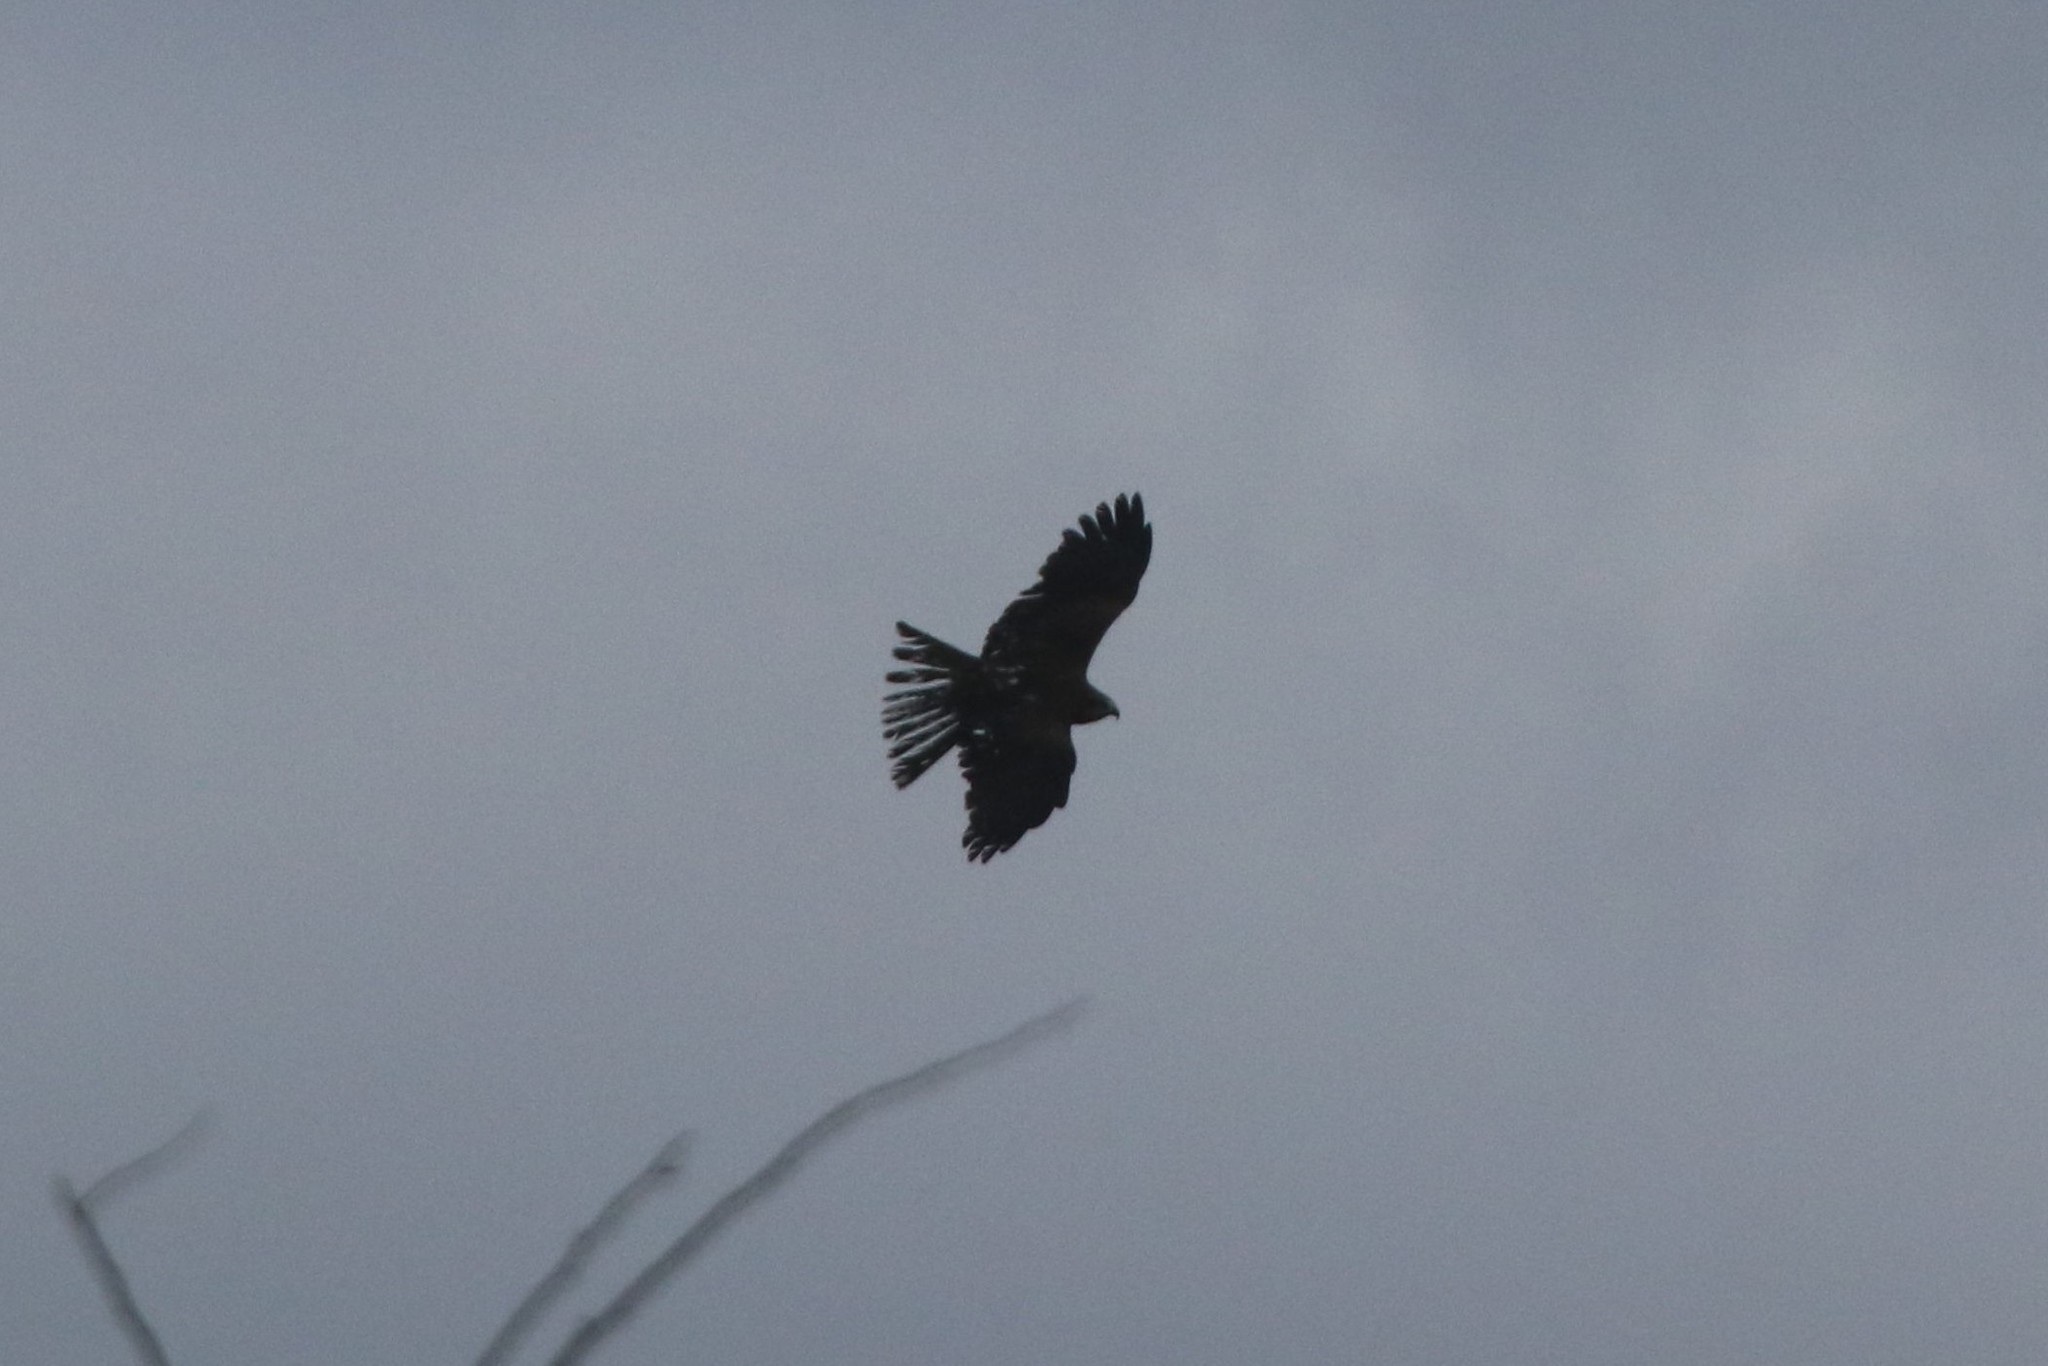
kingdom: Animalia
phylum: Chordata
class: Aves
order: Accipitriformes
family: Accipitridae
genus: Milvus
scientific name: Milvus migrans
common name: Black kite
